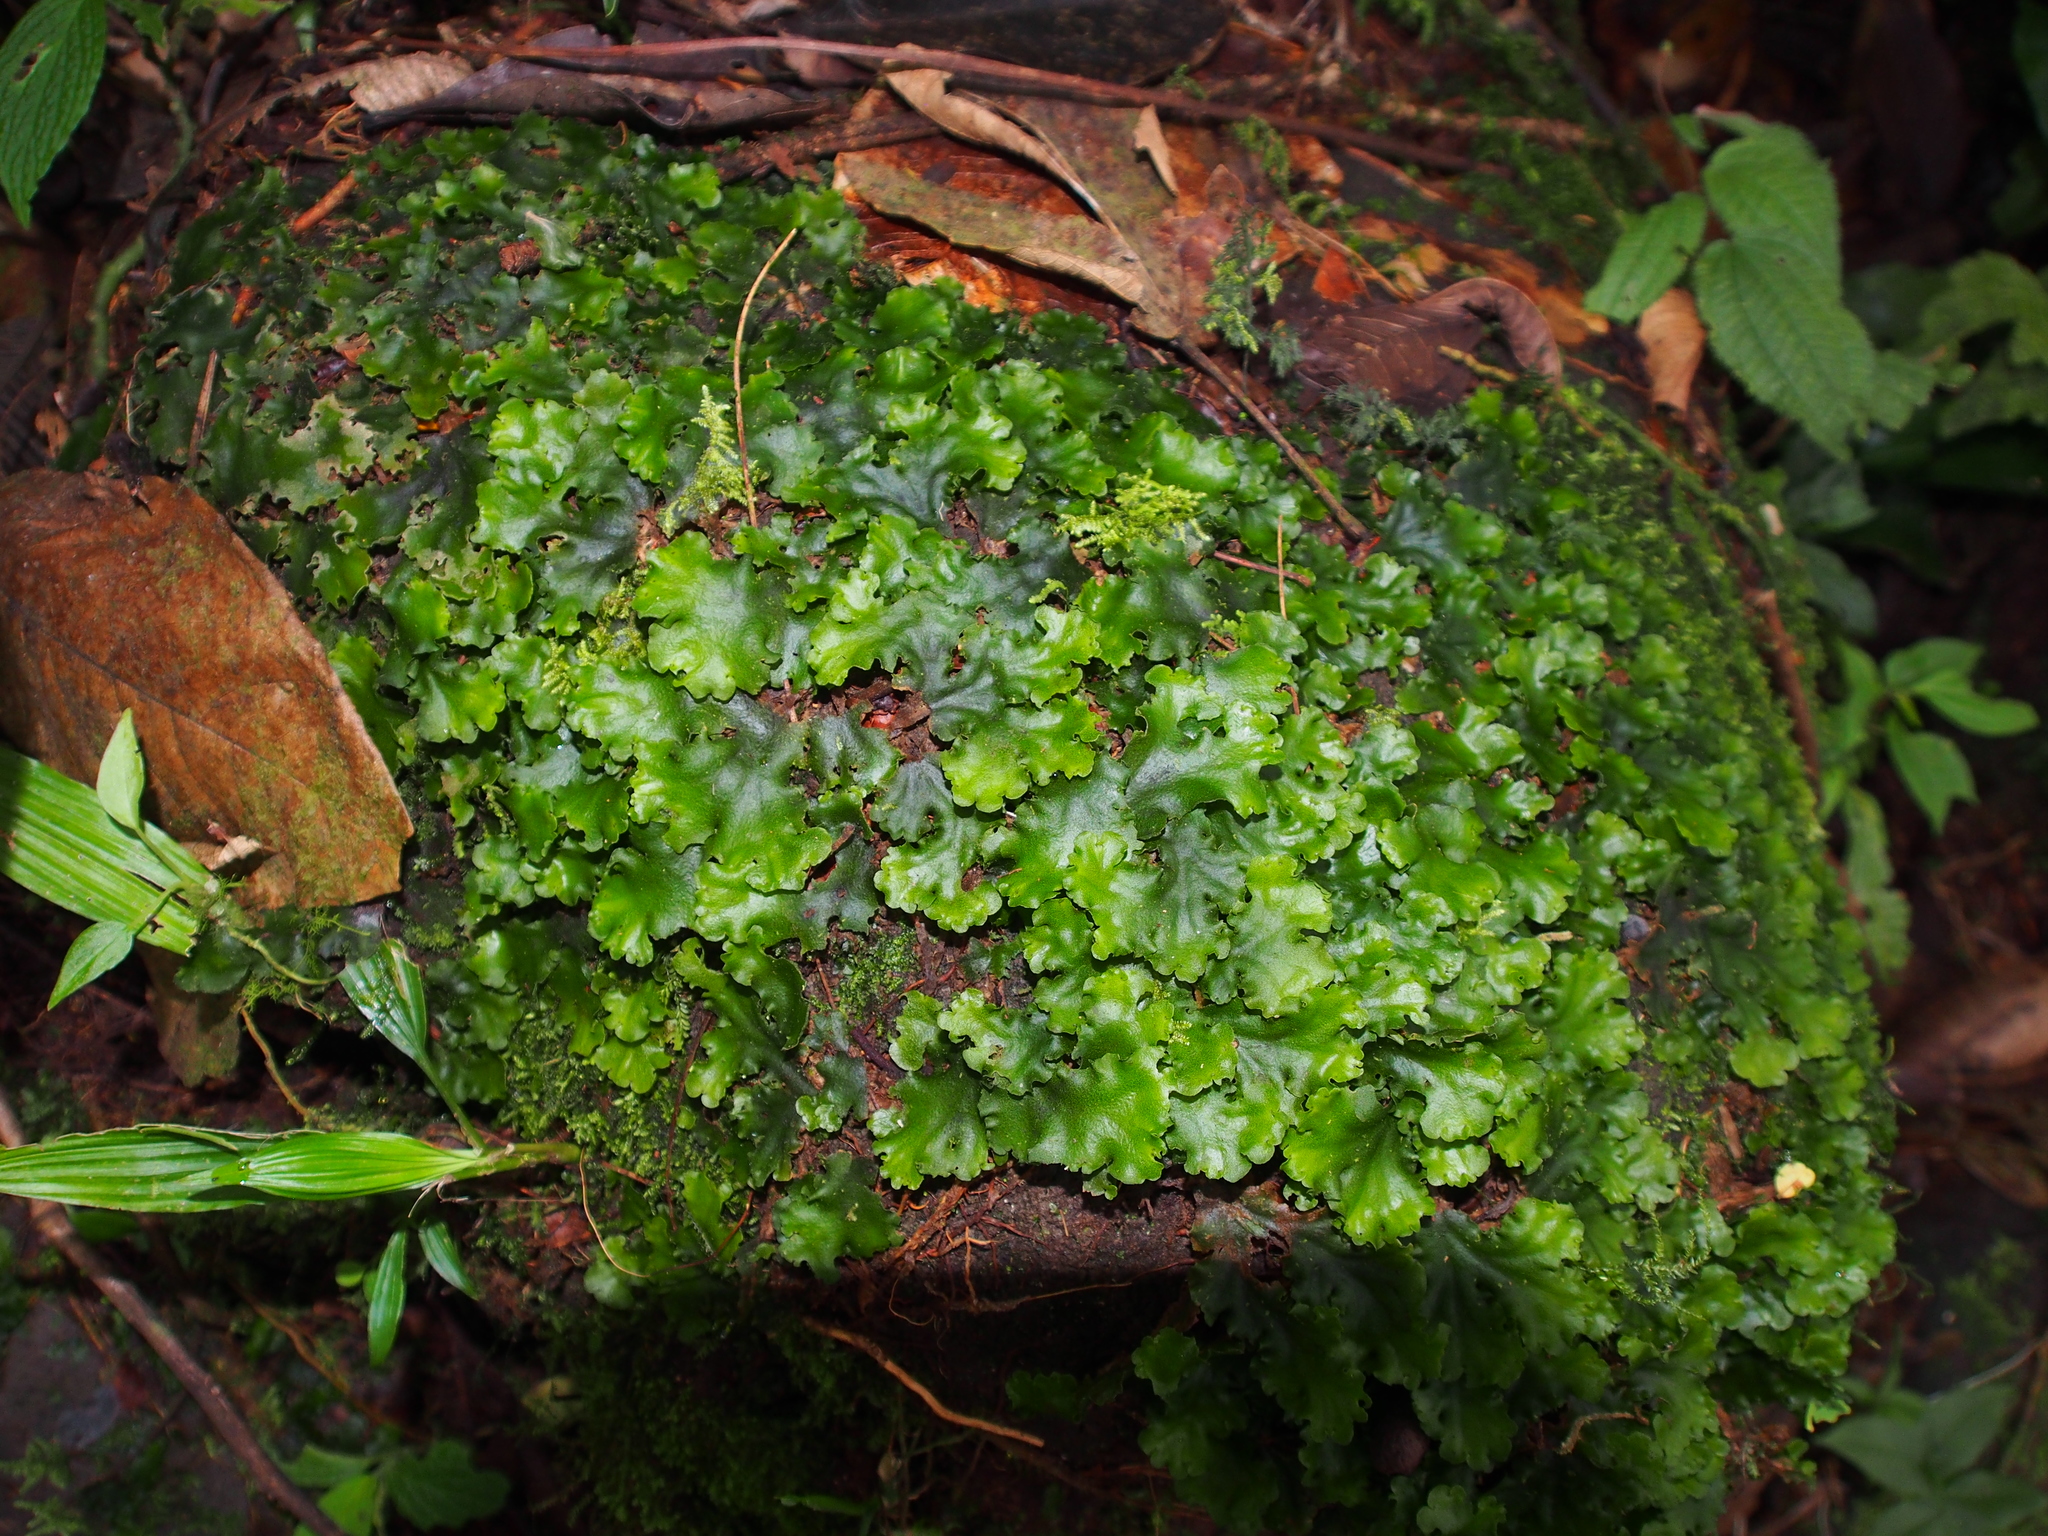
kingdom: Plantae
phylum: Marchantiophyta
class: Marchantiopsida
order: Marchantiales
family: Monocleaceae
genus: Monoclea
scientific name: Monoclea gottschei
